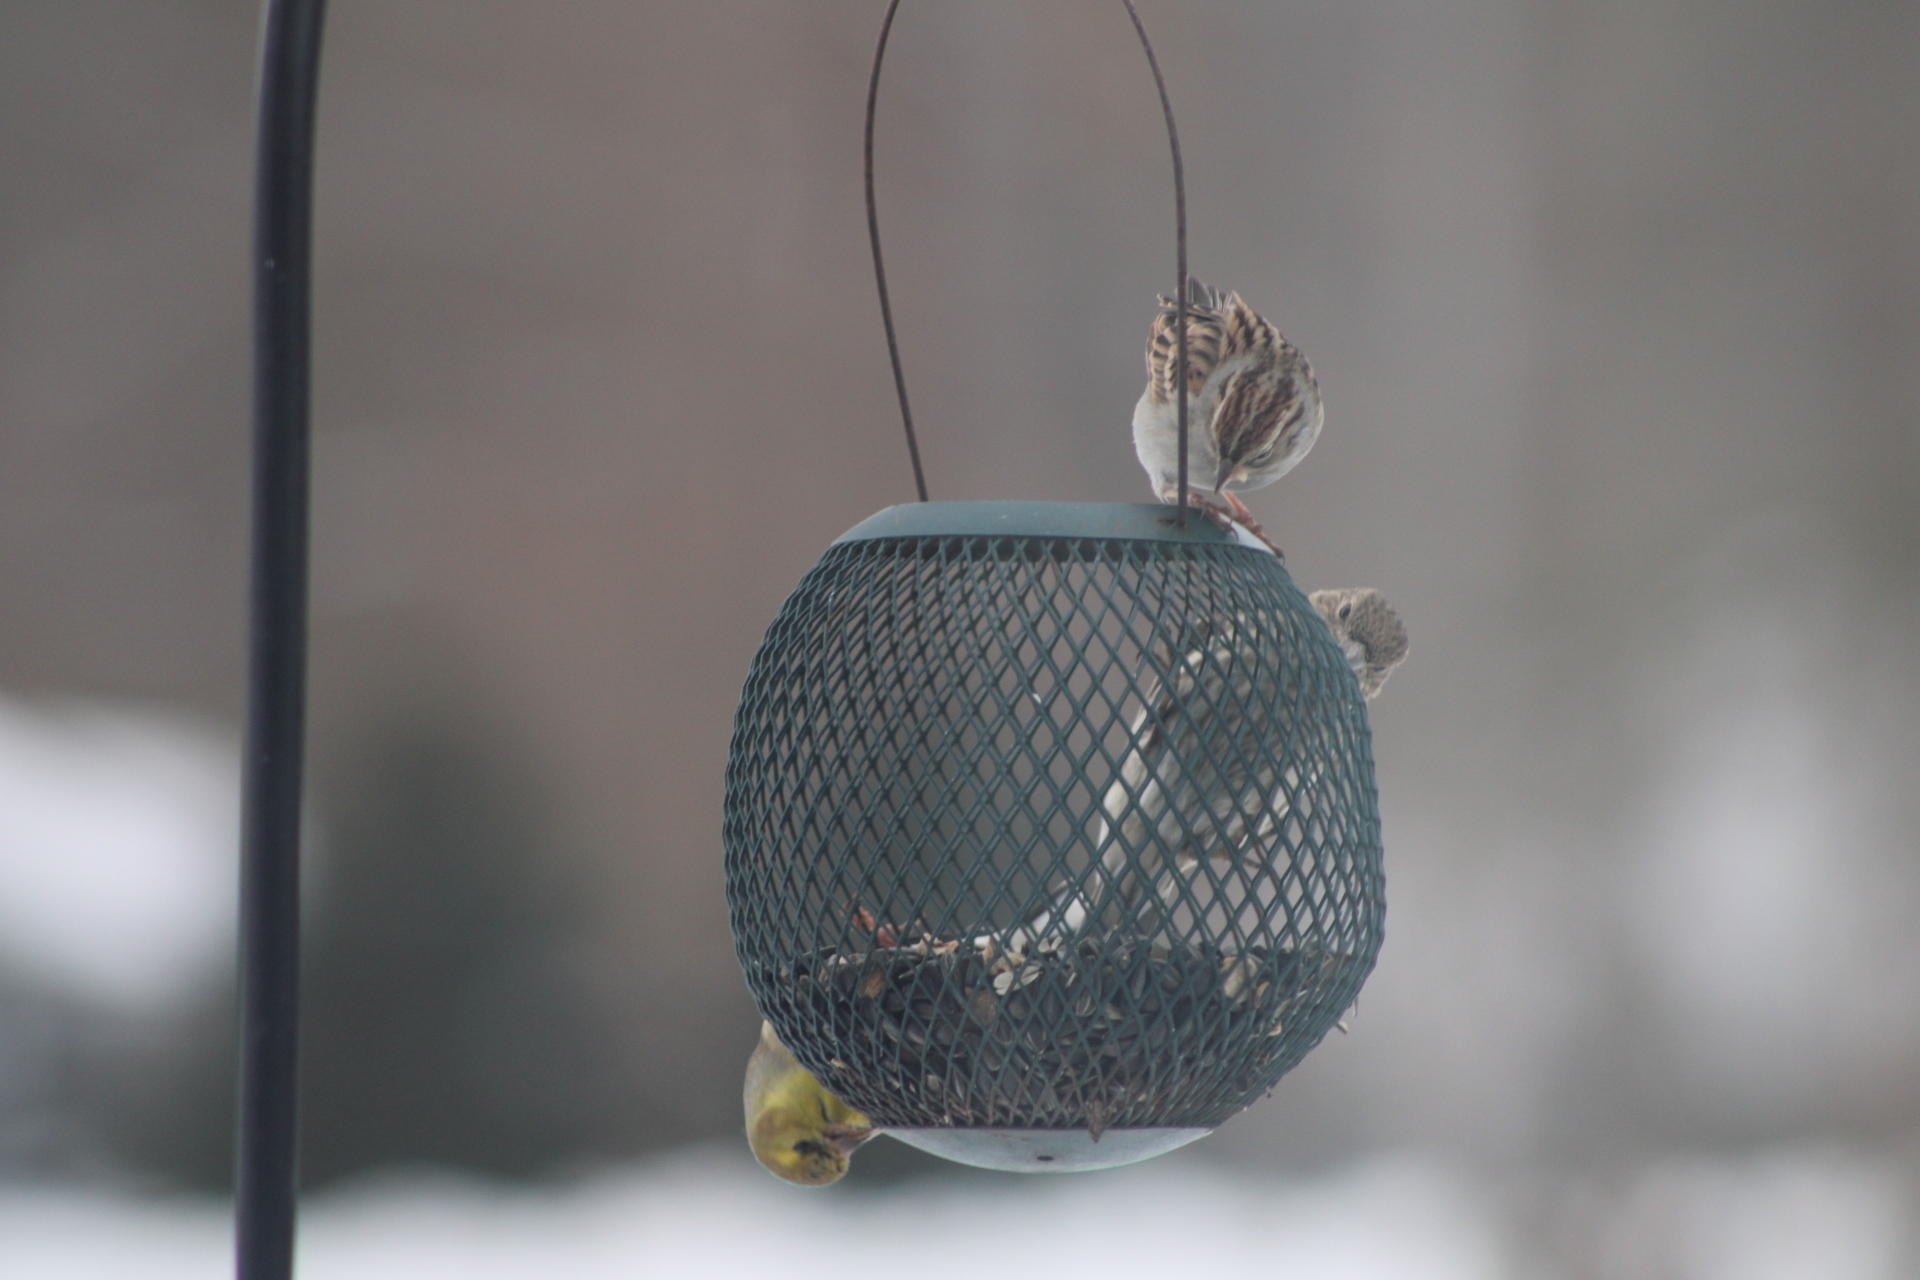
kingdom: Animalia
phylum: Chordata
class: Aves
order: Passeriformes
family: Passerellidae
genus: Spizella
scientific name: Spizella passerina
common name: Chipping sparrow
